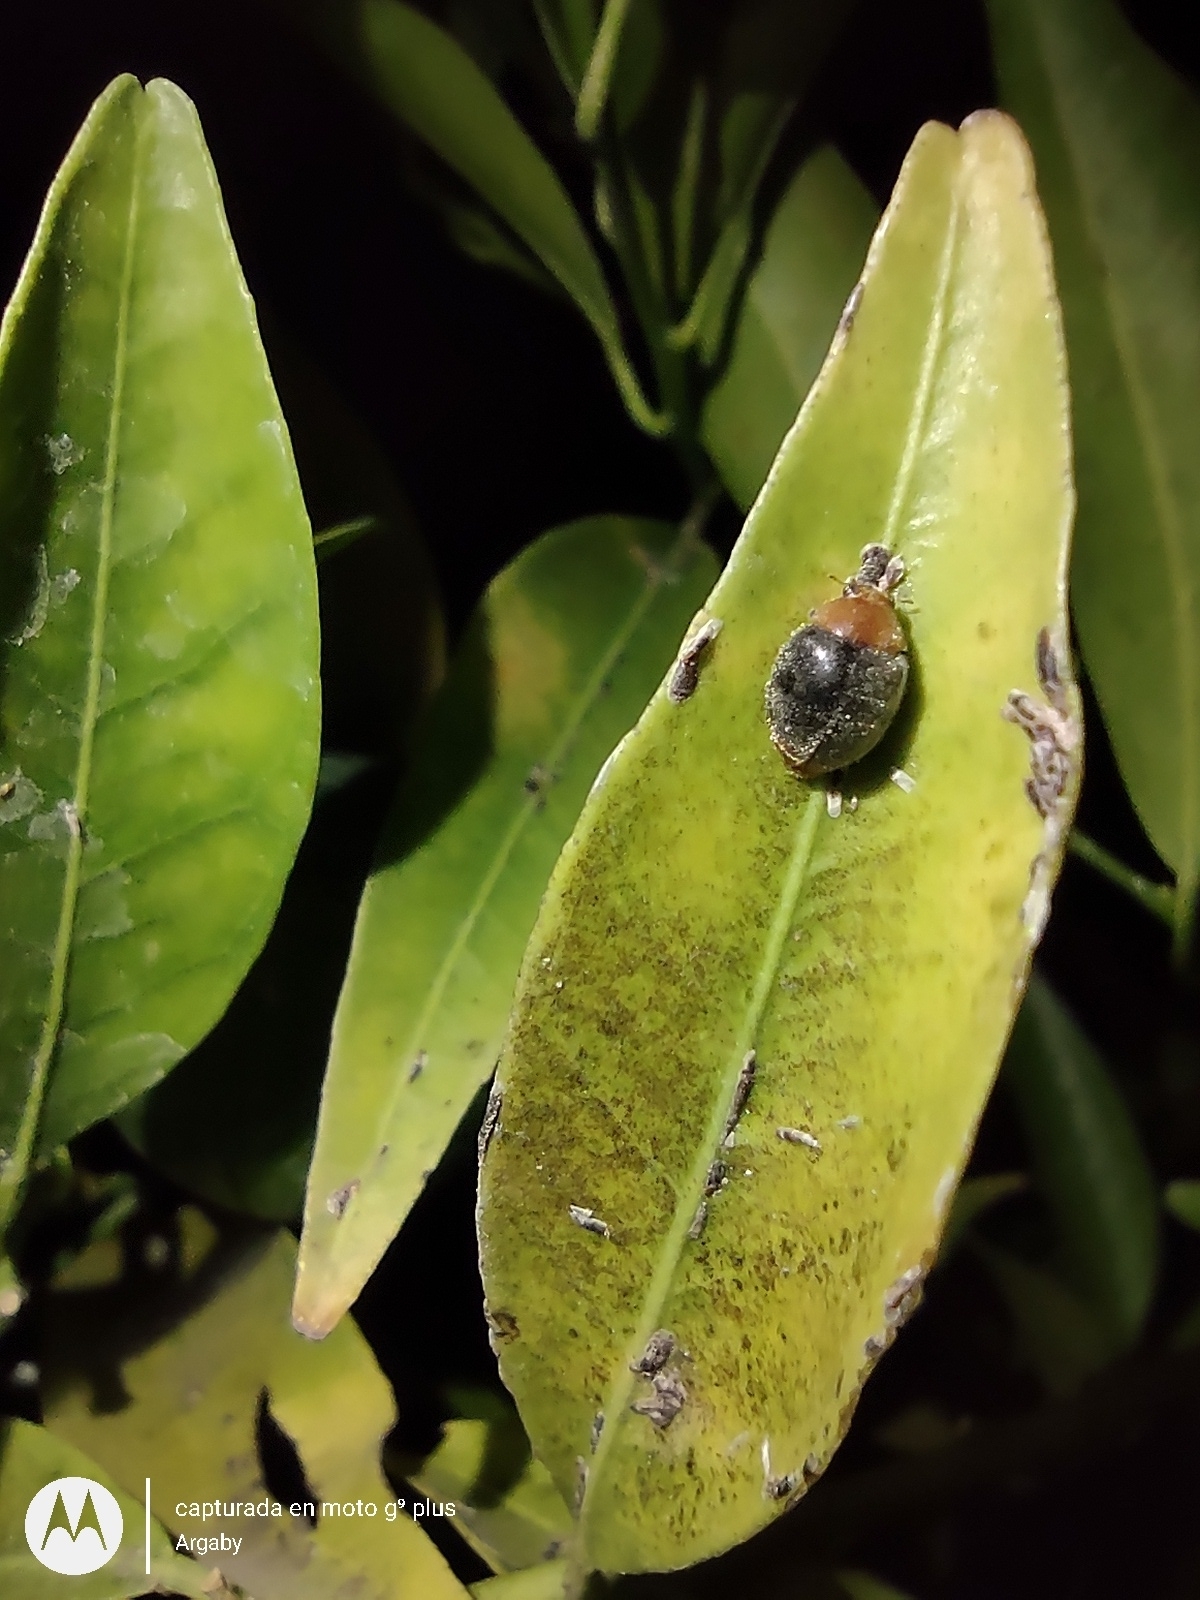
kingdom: Animalia
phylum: Arthropoda
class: Insecta
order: Coleoptera
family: Coccinellidae
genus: Cryptolaemus
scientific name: Cryptolaemus montrouzieri
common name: Mealybug destroyer
